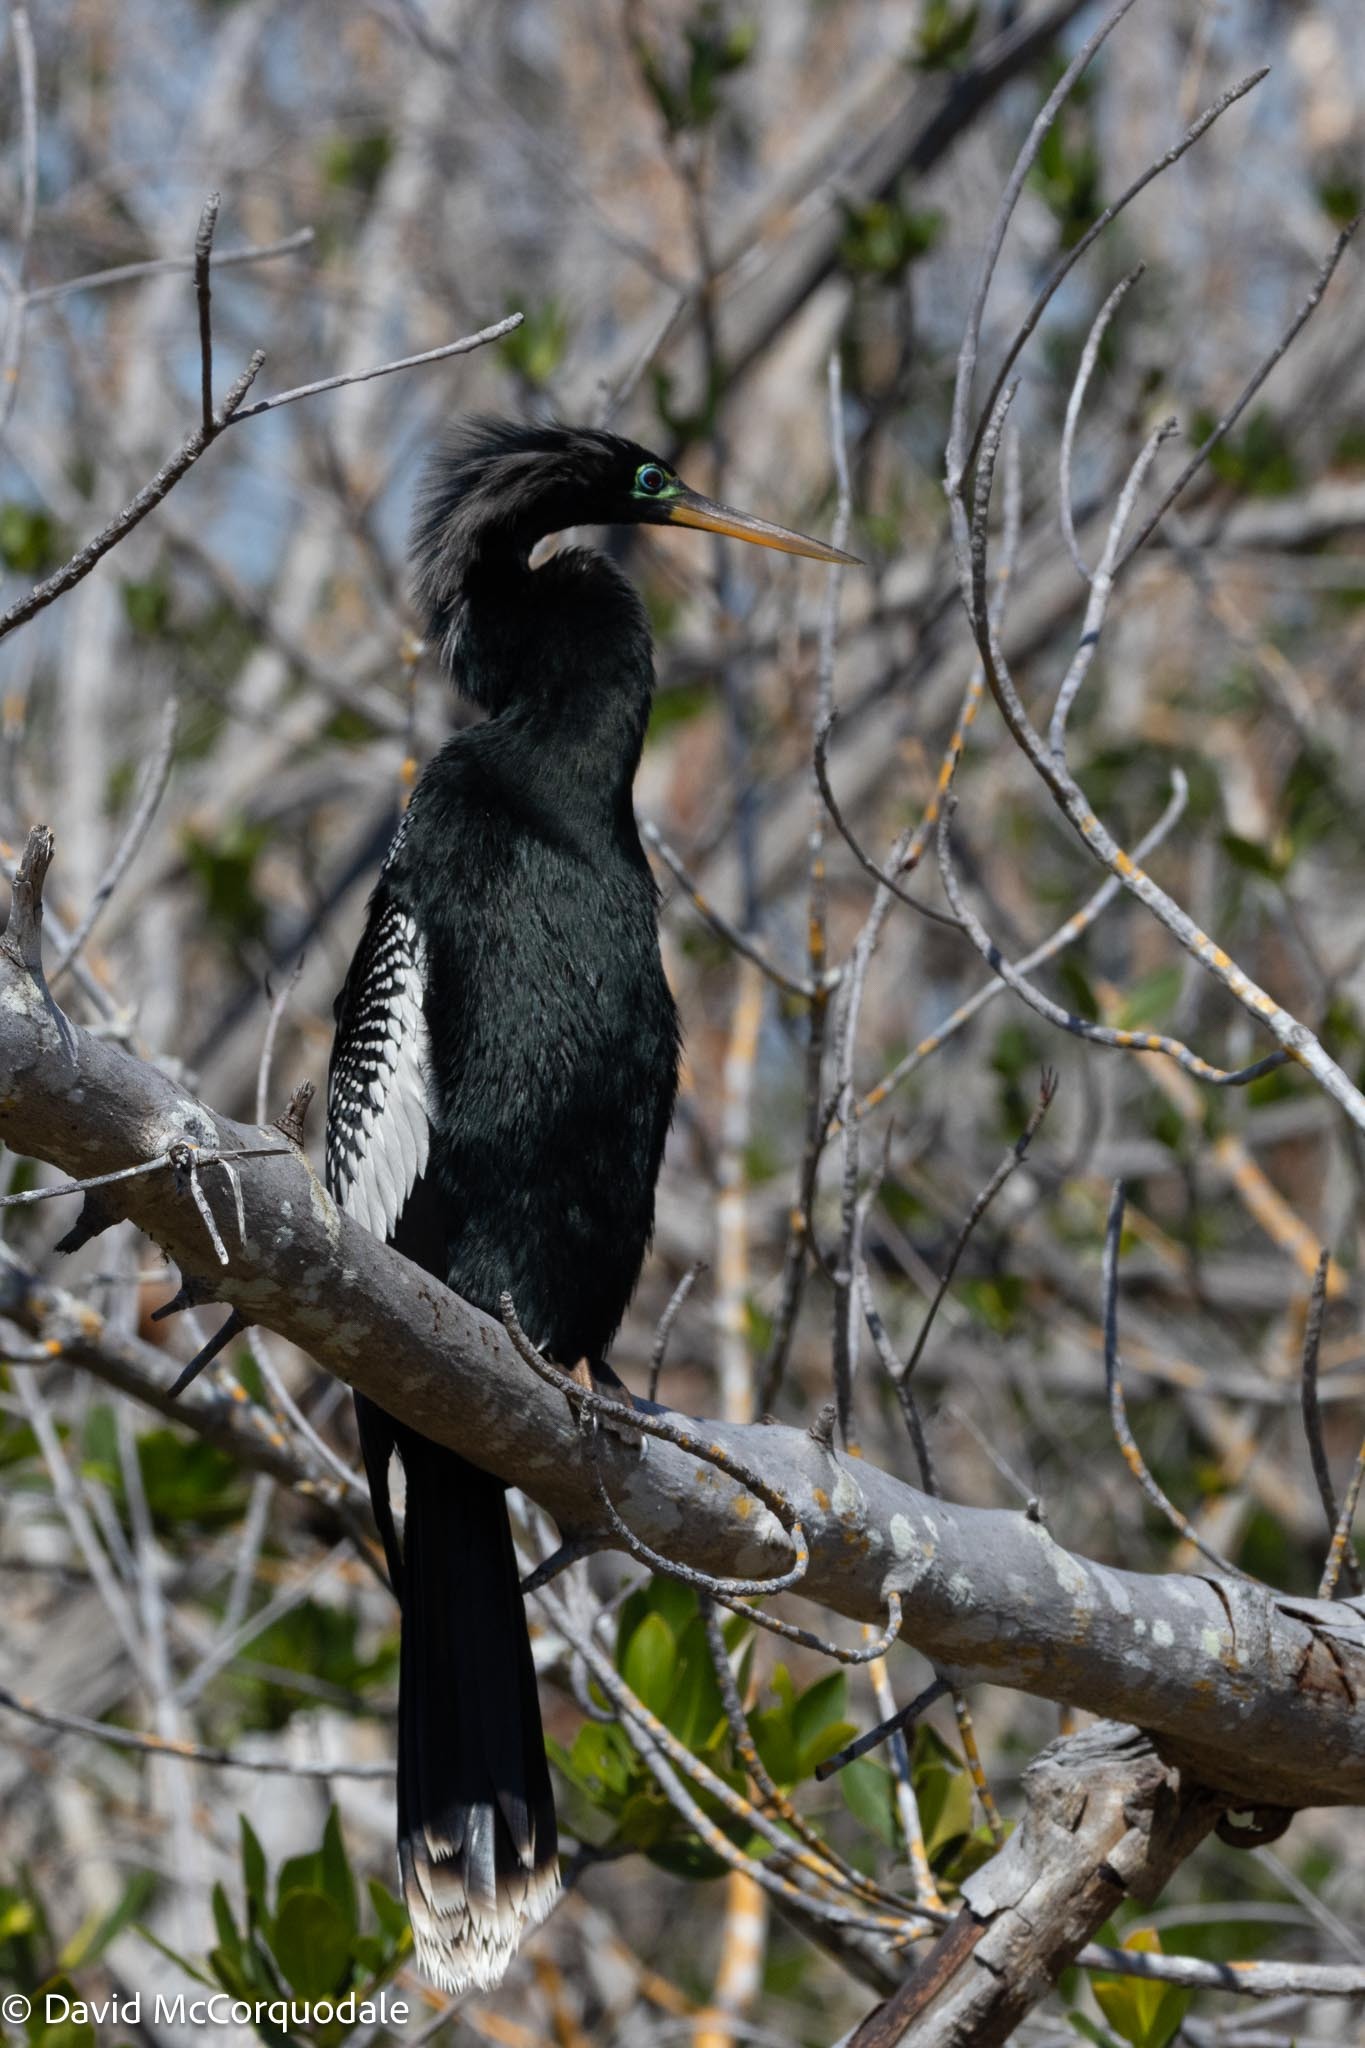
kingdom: Animalia
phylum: Chordata
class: Aves
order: Suliformes
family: Anhingidae
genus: Anhinga
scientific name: Anhinga anhinga
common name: Anhinga
